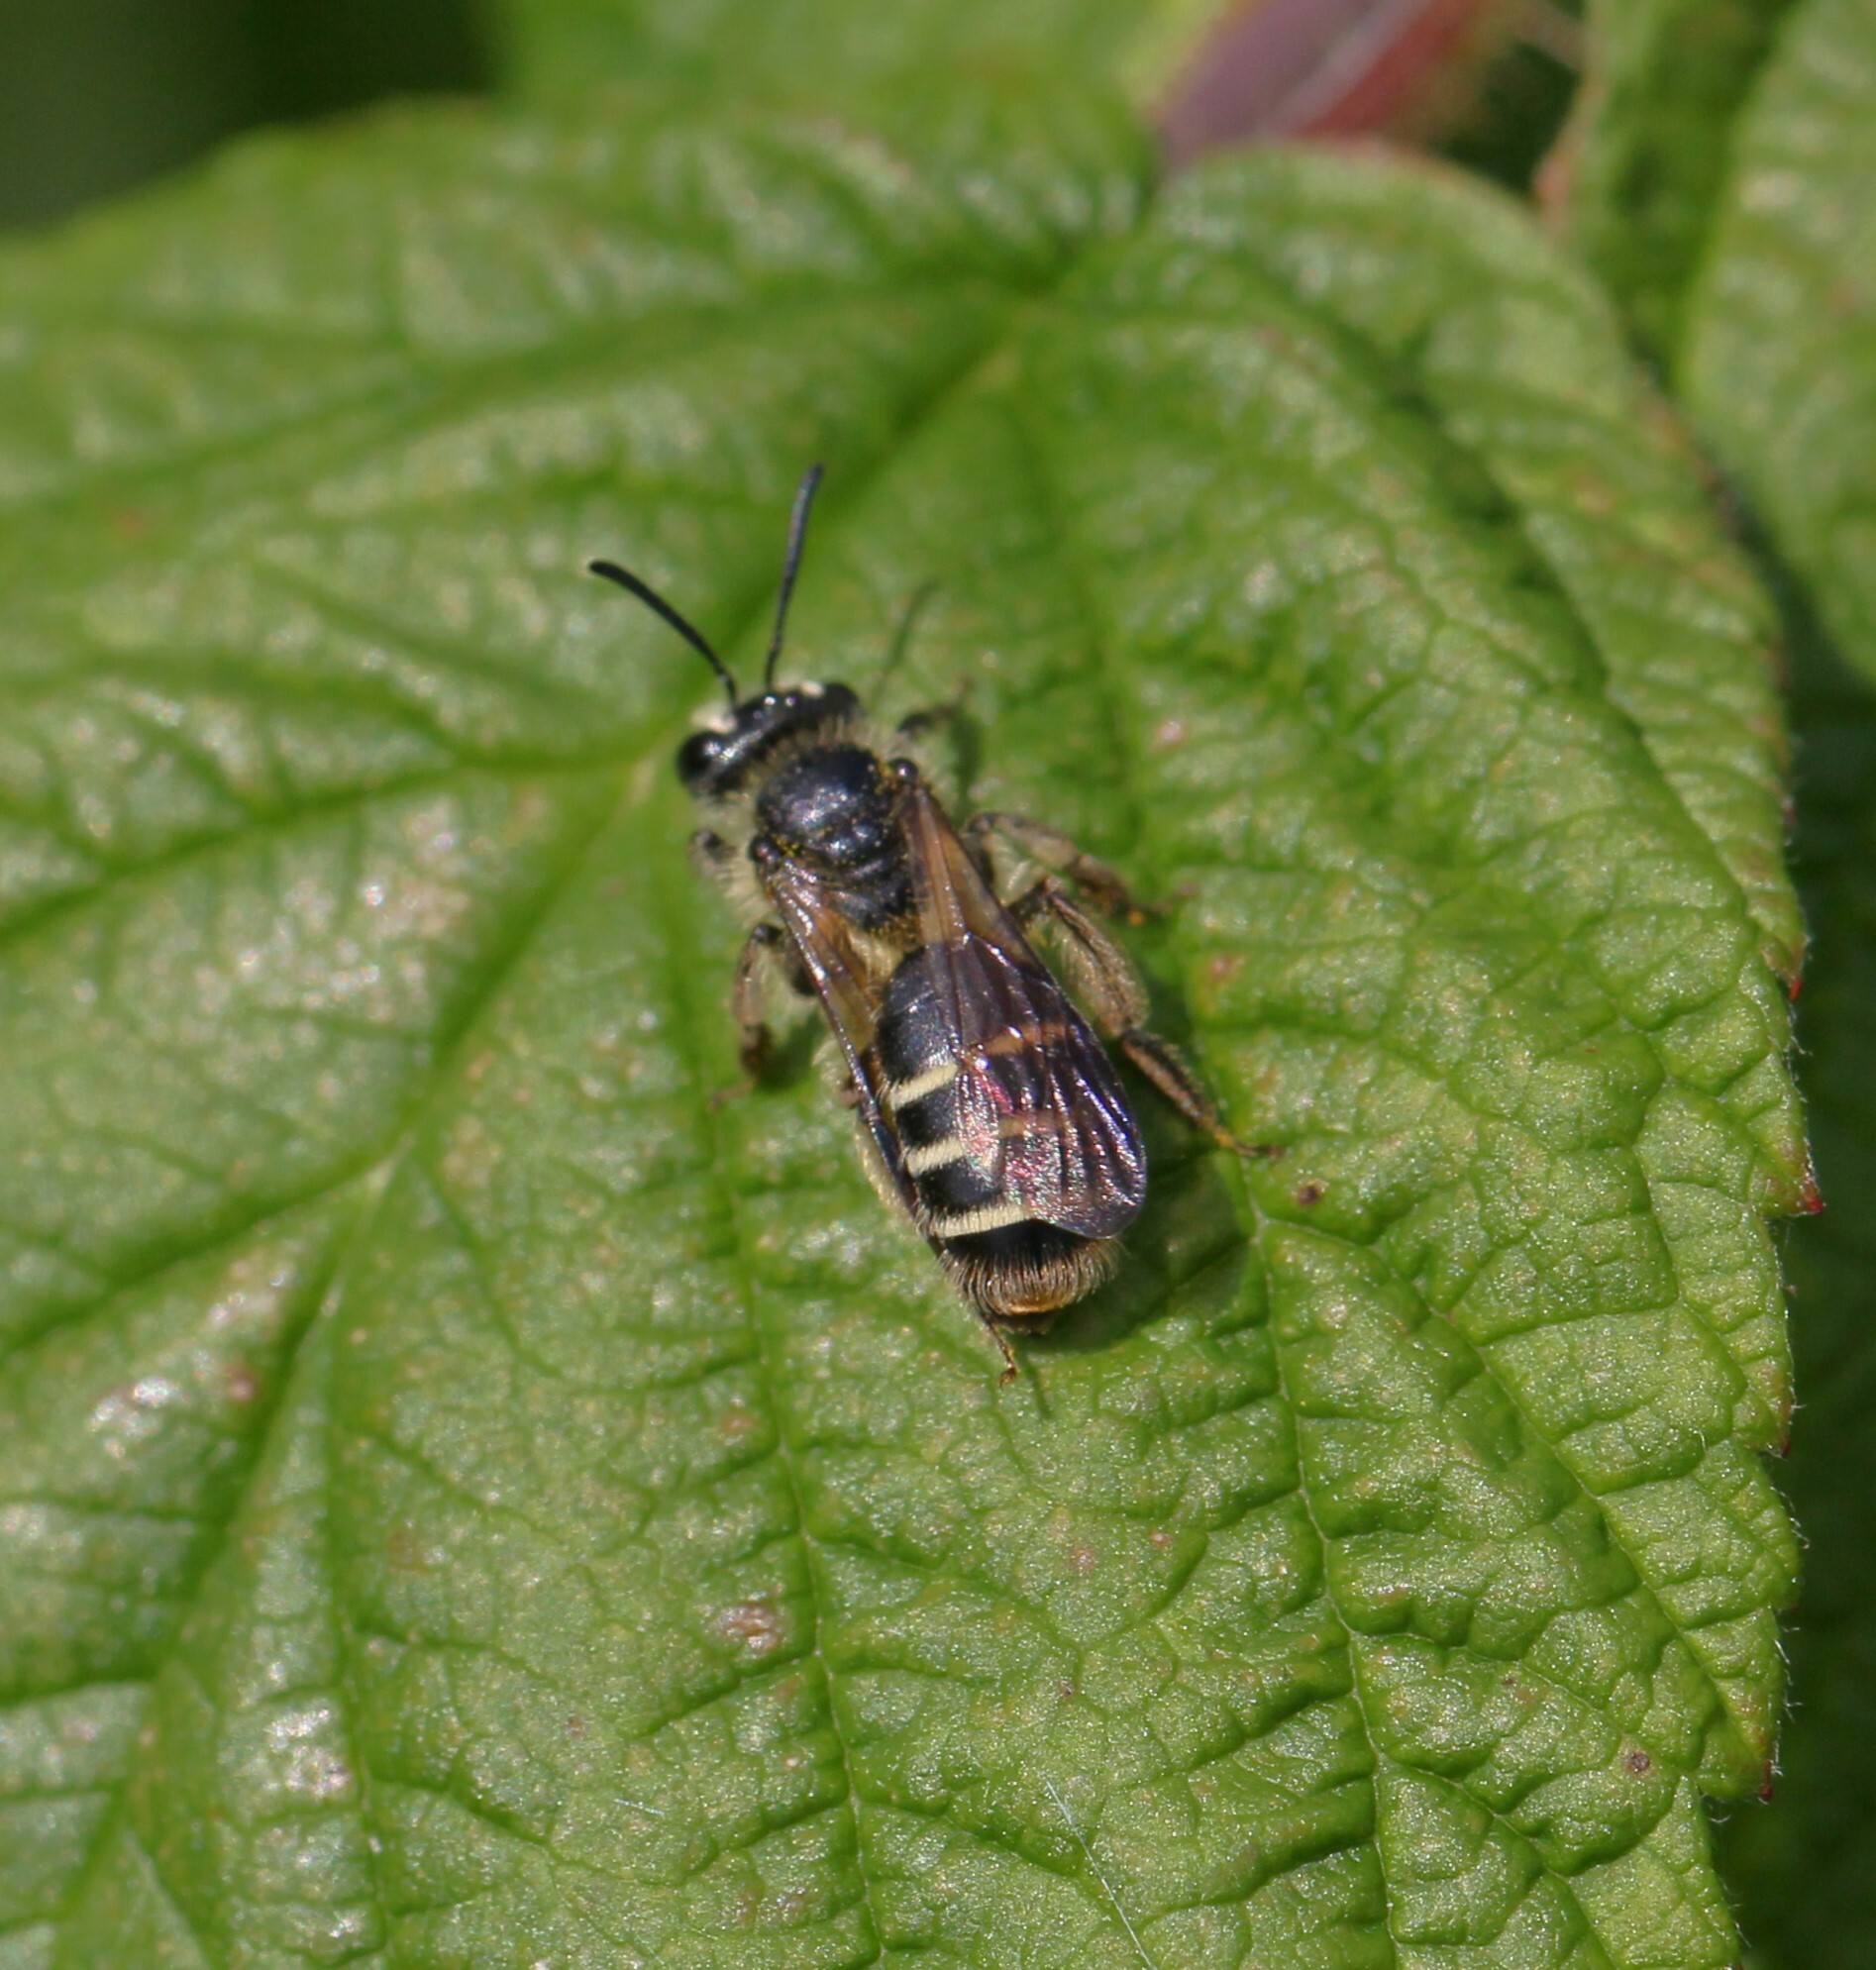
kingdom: Animalia
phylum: Arthropoda
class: Insecta
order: Hymenoptera
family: Andrenidae
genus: Andrena
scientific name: Andrena nubecula
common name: Cloudy-winged mining bee
